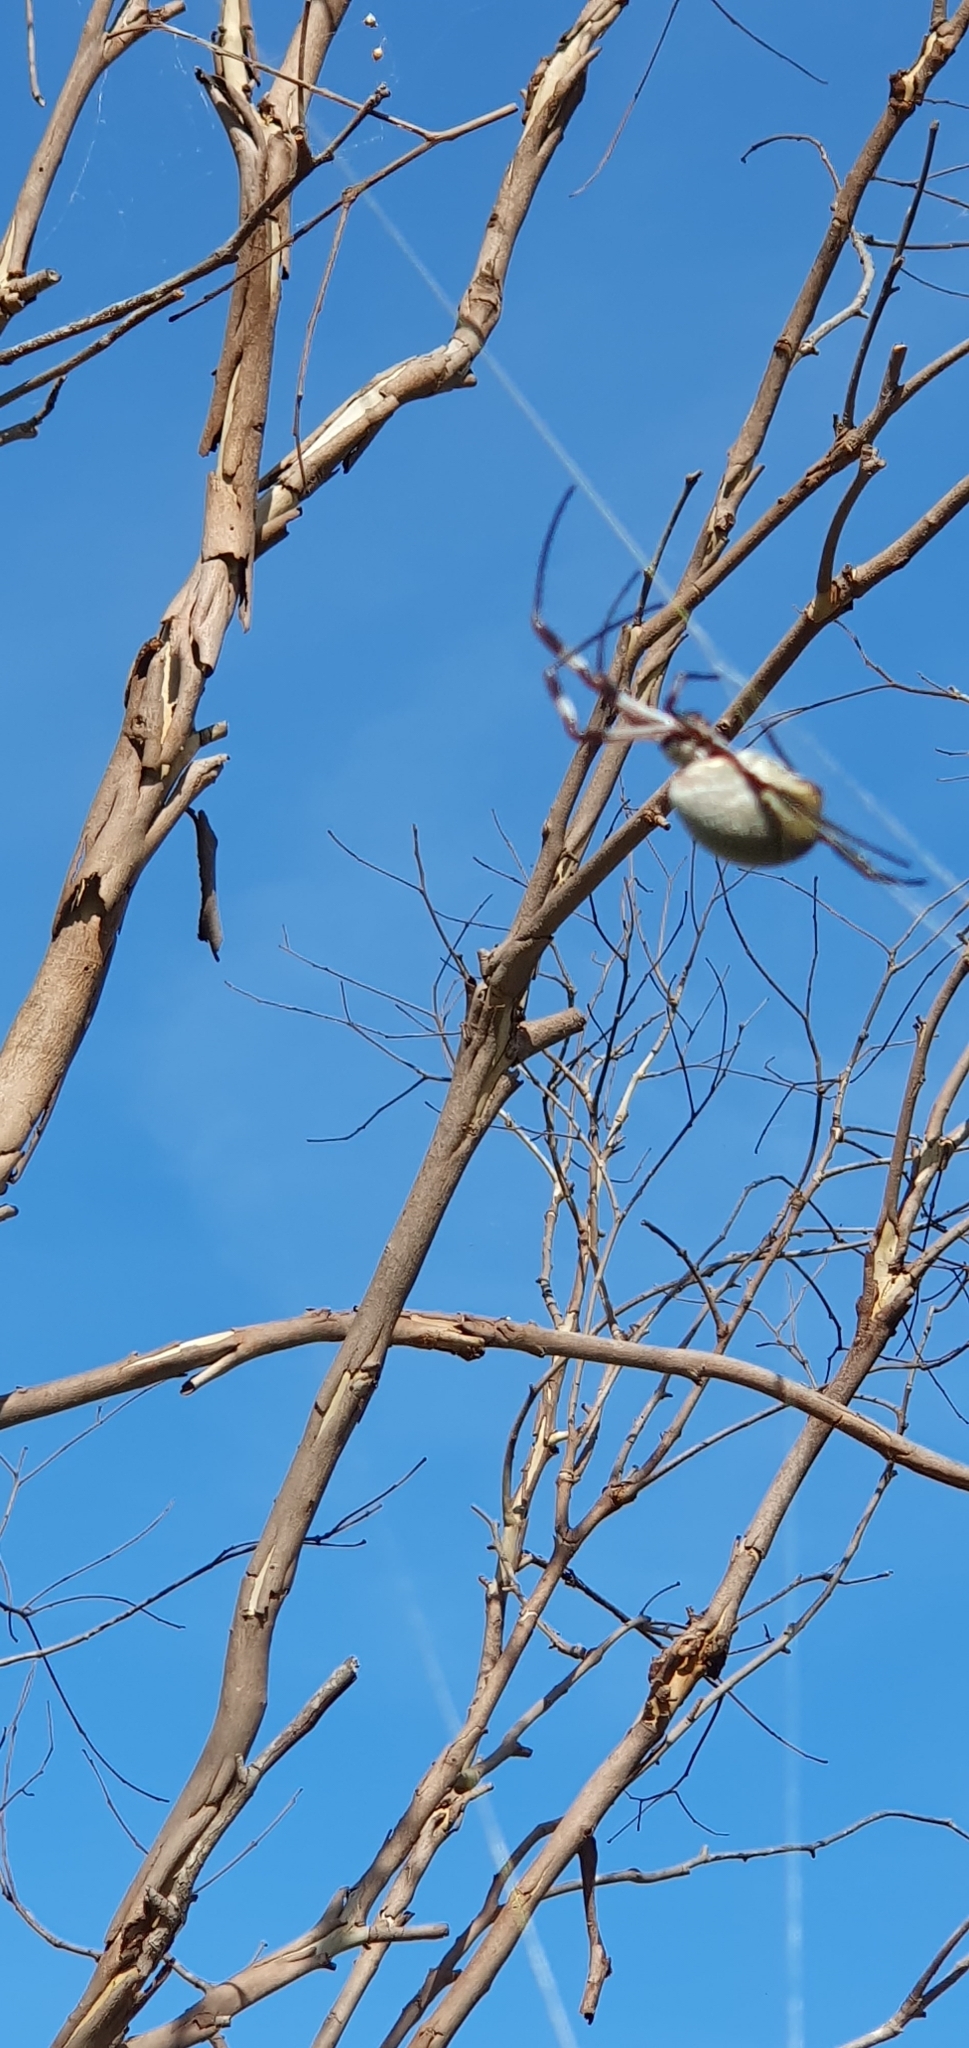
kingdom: Animalia
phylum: Arthropoda
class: Arachnida
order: Araneae
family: Araneidae
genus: Trichonephila
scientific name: Trichonephila edulis
